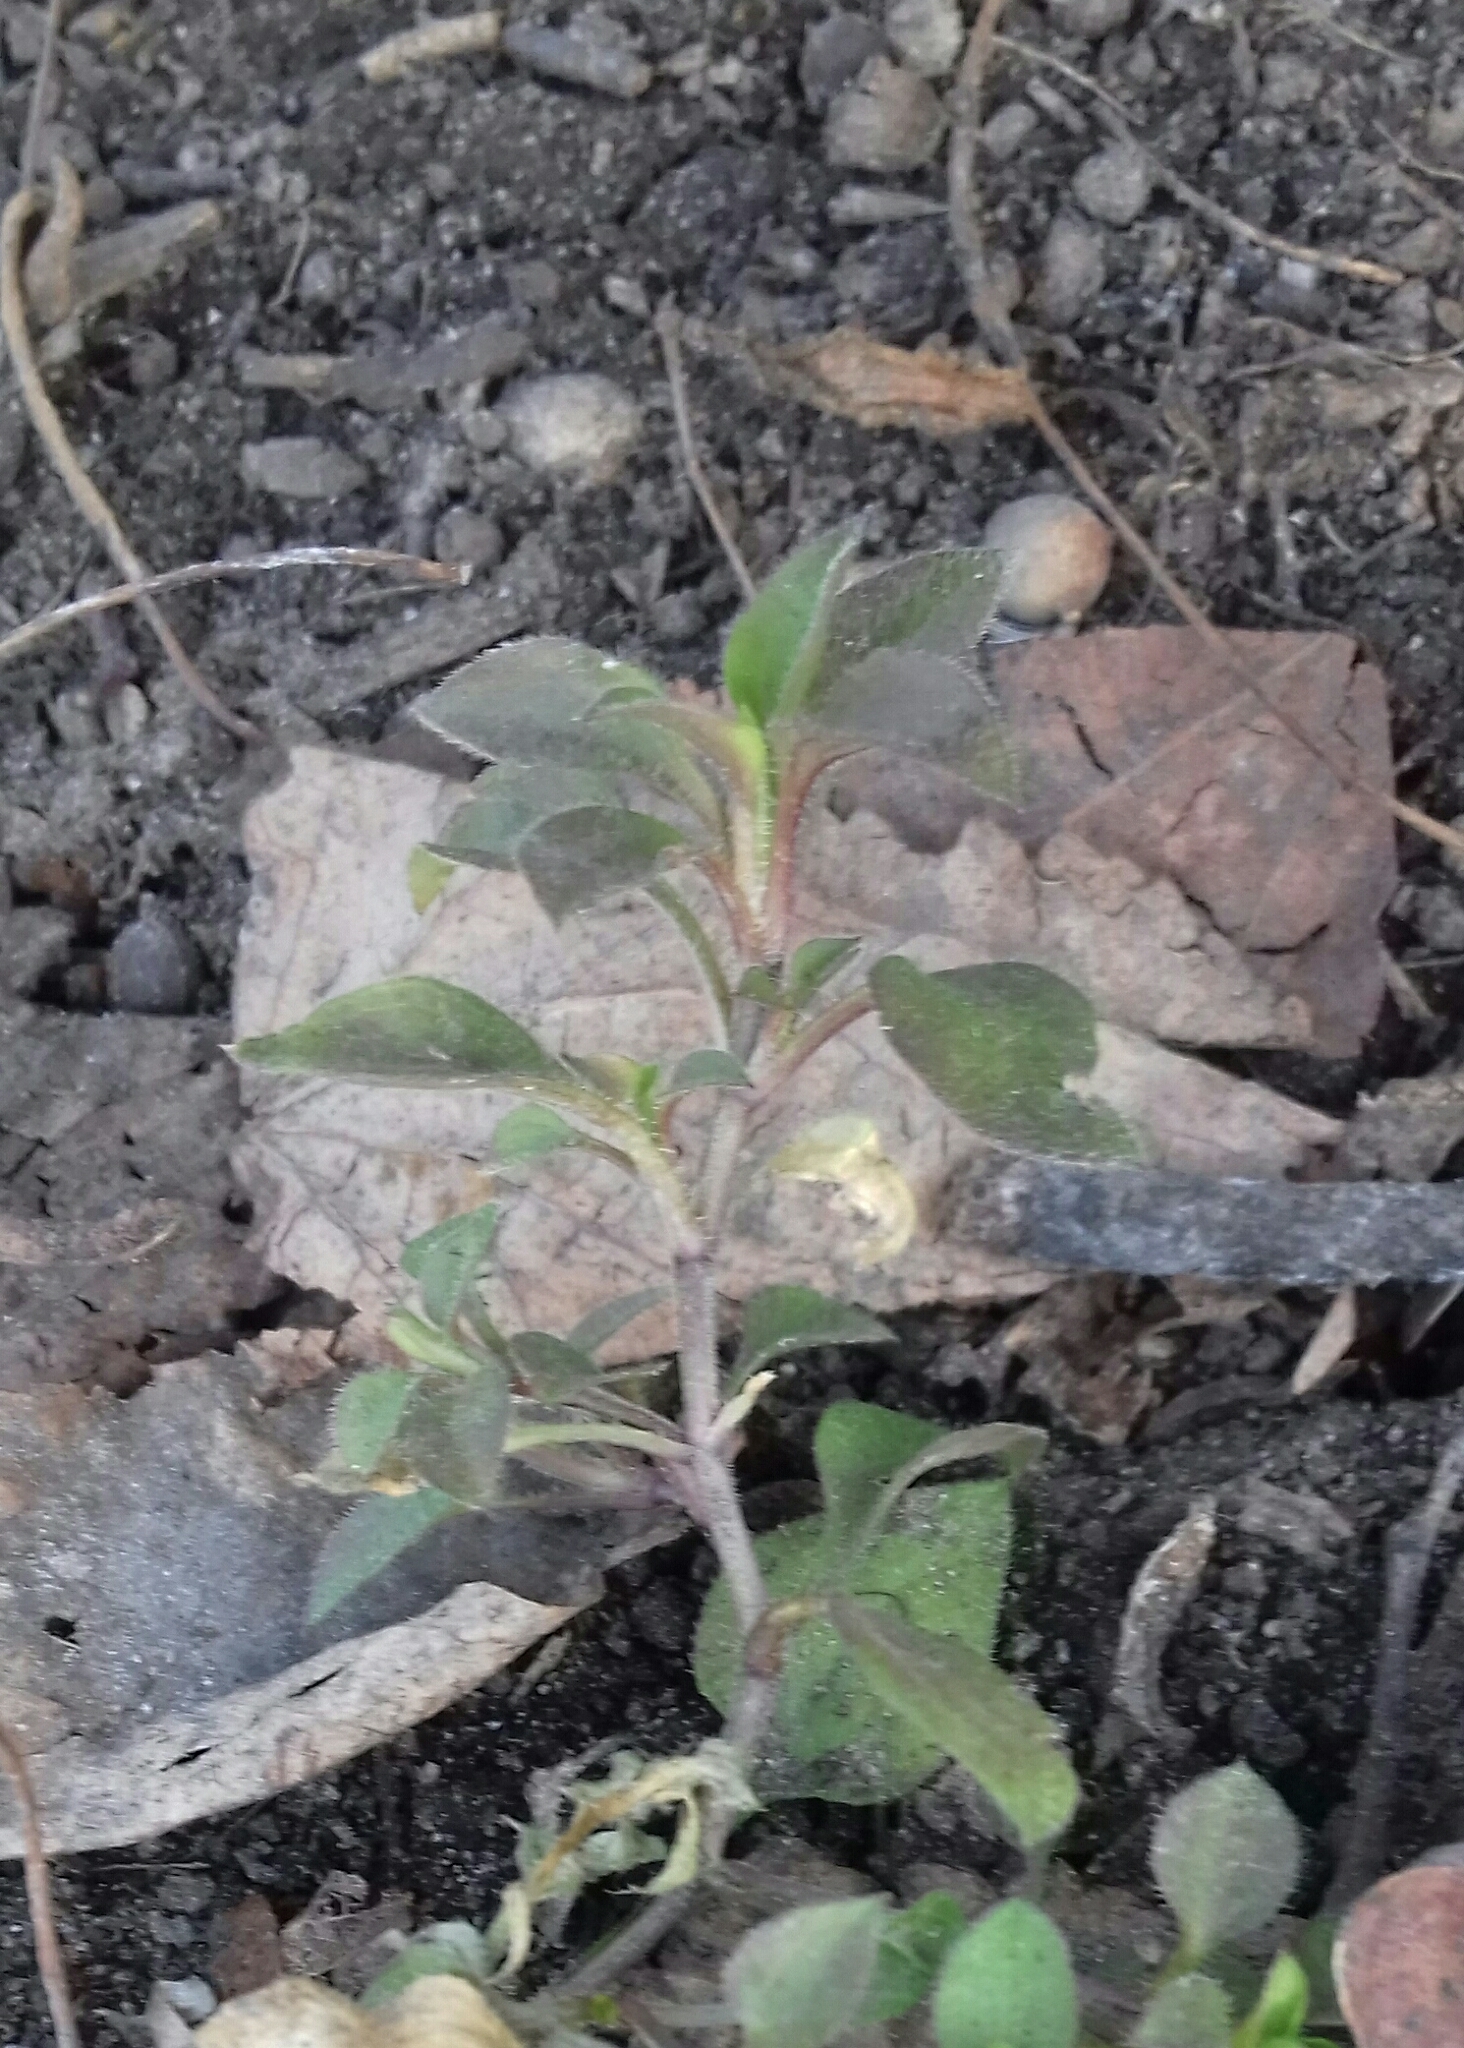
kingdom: Plantae
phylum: Tracheophyta
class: Magnoliopsida
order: Caryophyllales
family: Caryophyllaceae
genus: Moehringia
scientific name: Moehringia trinervia
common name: Three-nerved sandwort
